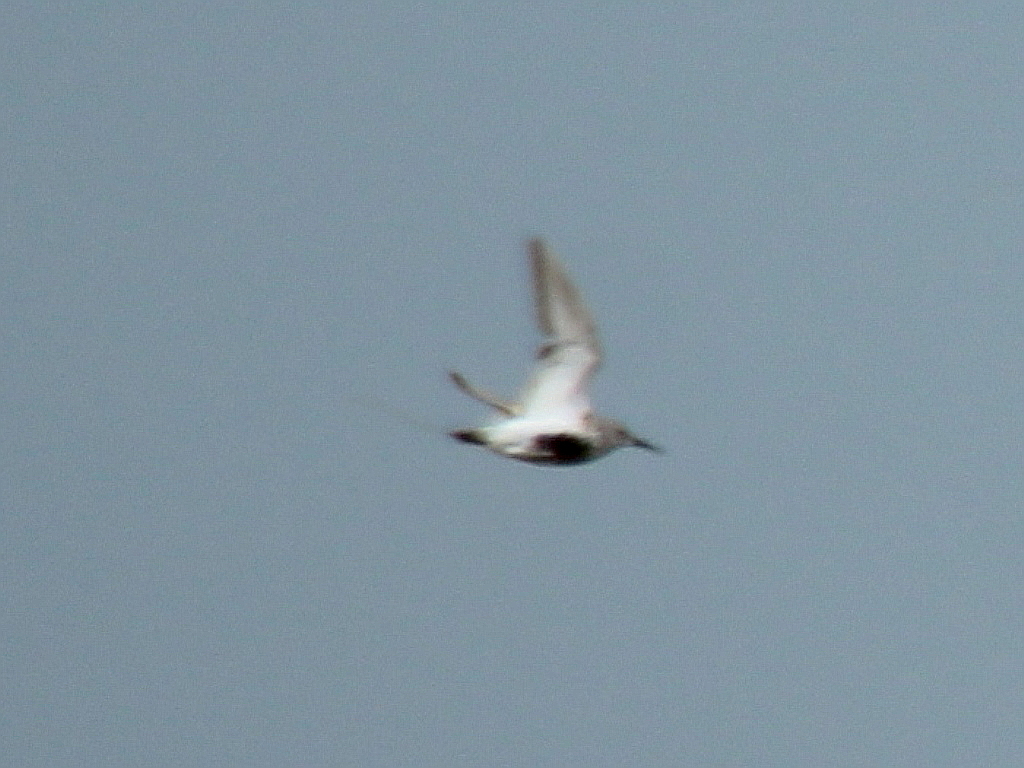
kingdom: Animalia
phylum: Chordata
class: Aves
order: Charadriiformes
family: Scolopacidae
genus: Calidris
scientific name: Calidris alpina
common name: Dunlin
